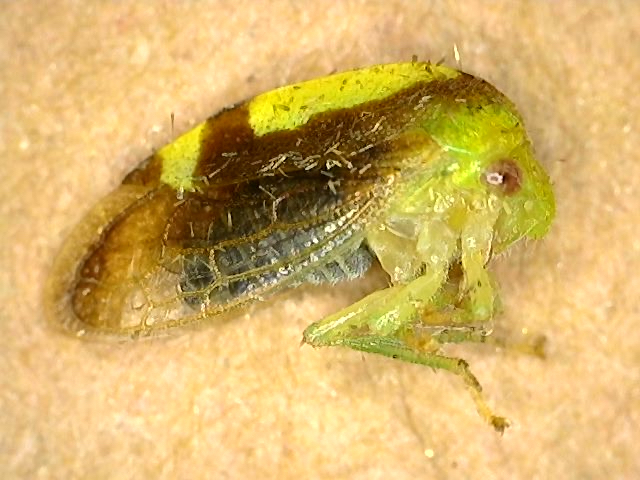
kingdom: Animalia
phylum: Arthropoda
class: Insecta
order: Hemiptera
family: Membracidae
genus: Atymna
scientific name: Atymna querci
